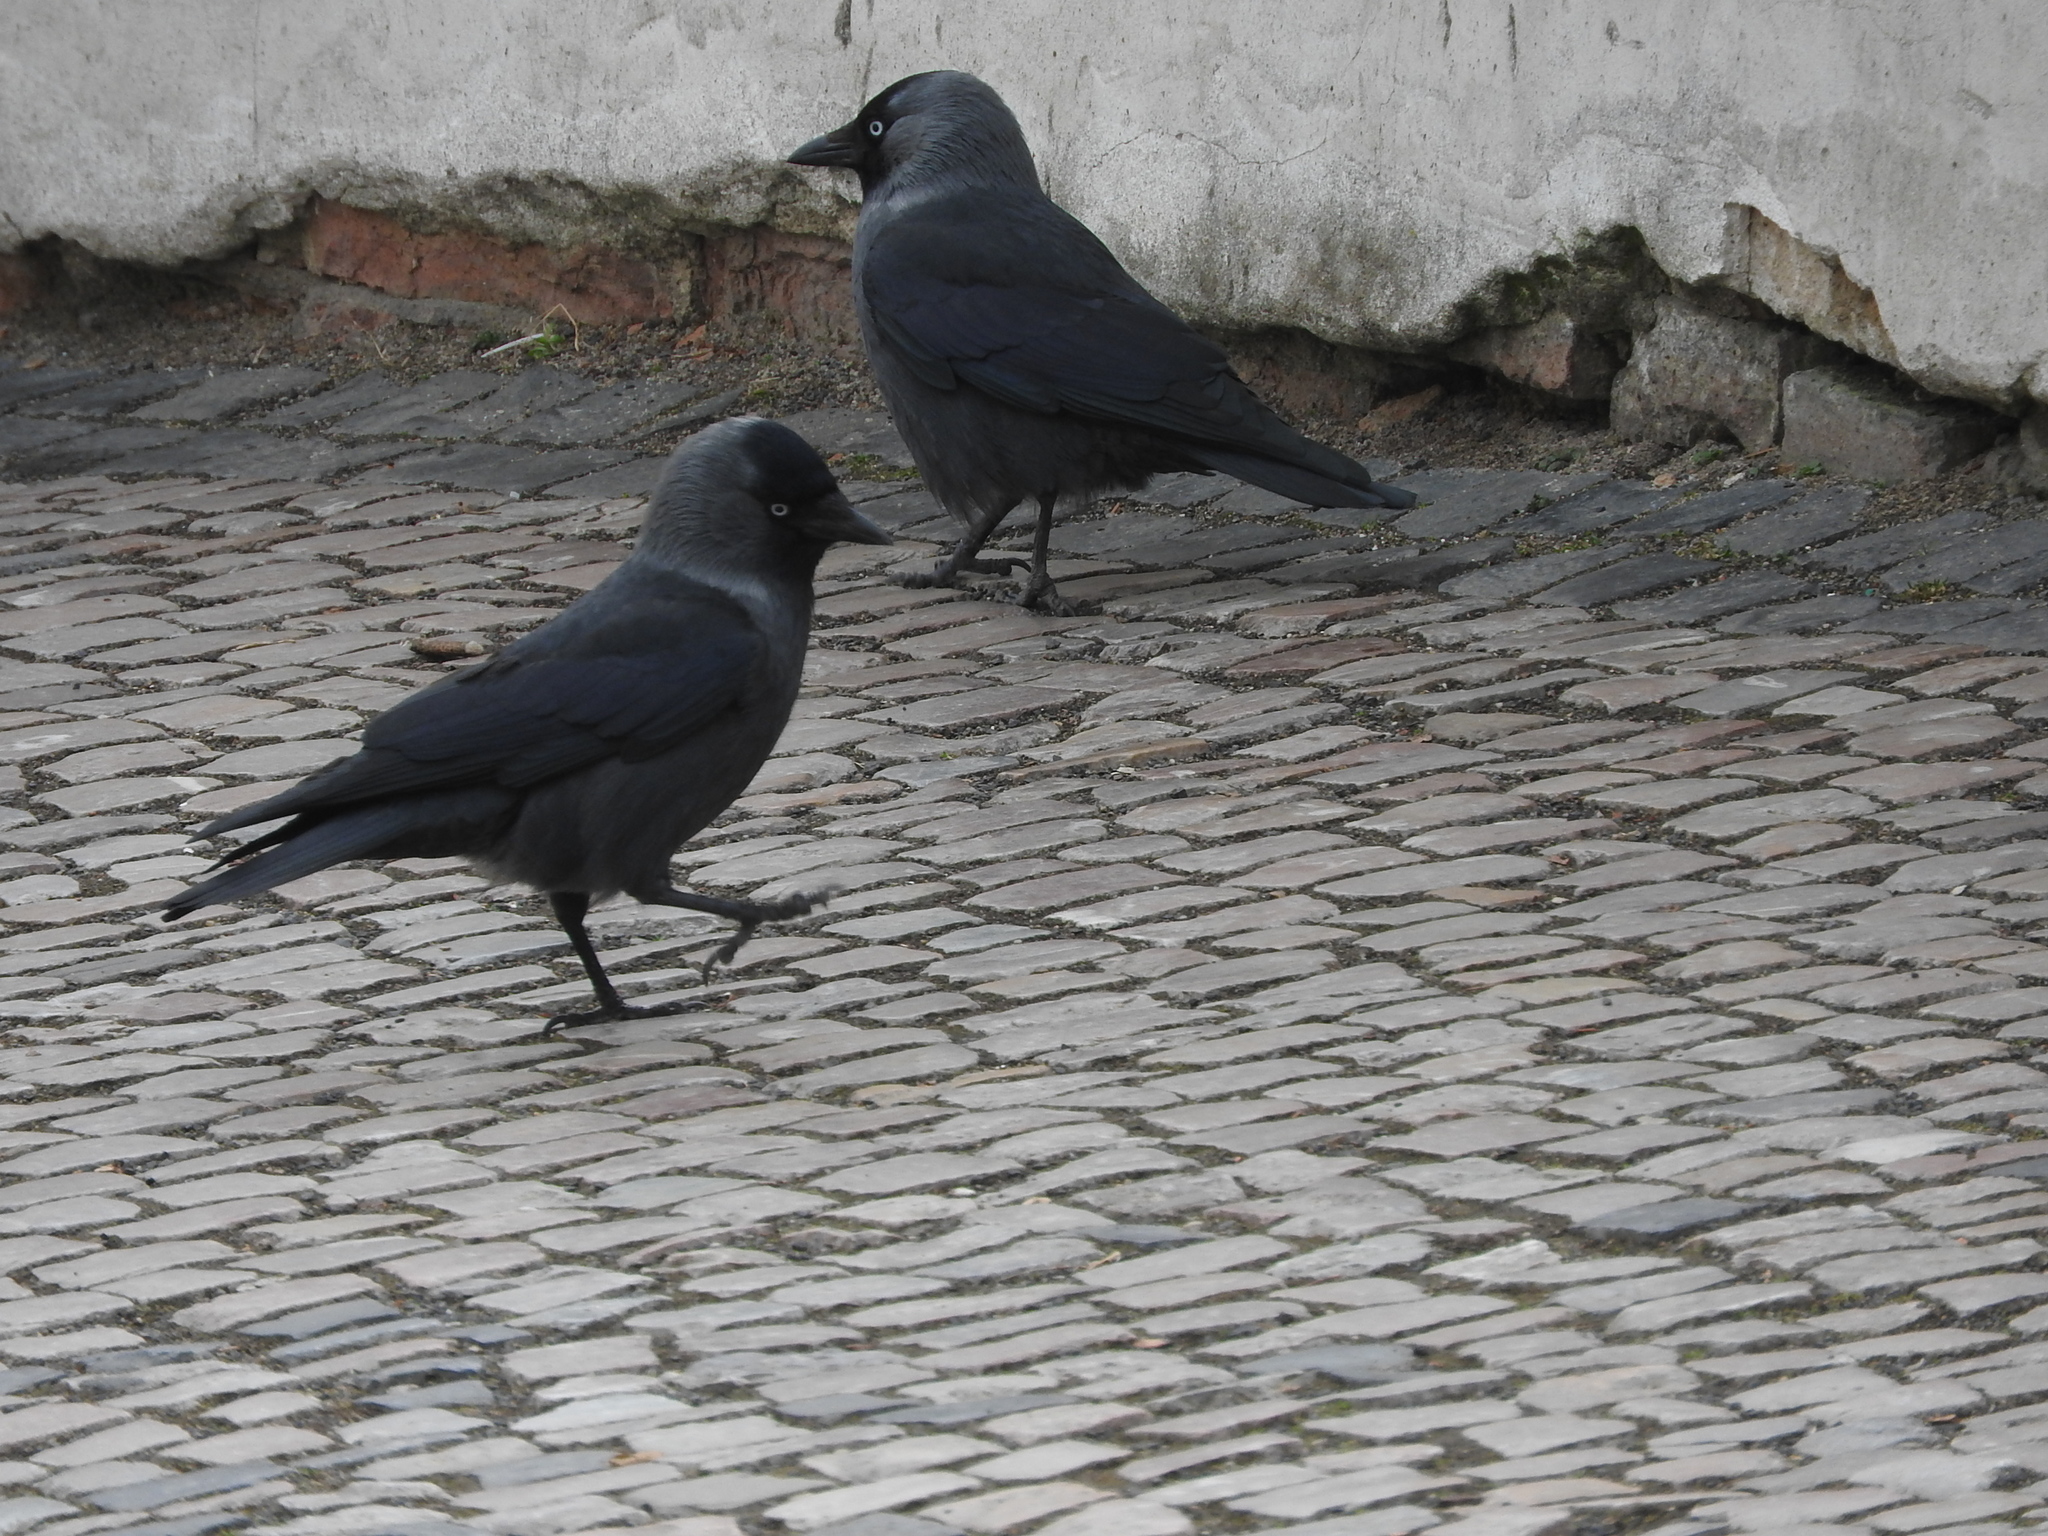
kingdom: Animalia
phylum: Chordata
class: Aves
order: Passeriformes
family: Corvidae
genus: Coloeus
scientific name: Coloeus monedula
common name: Western jackdaw
